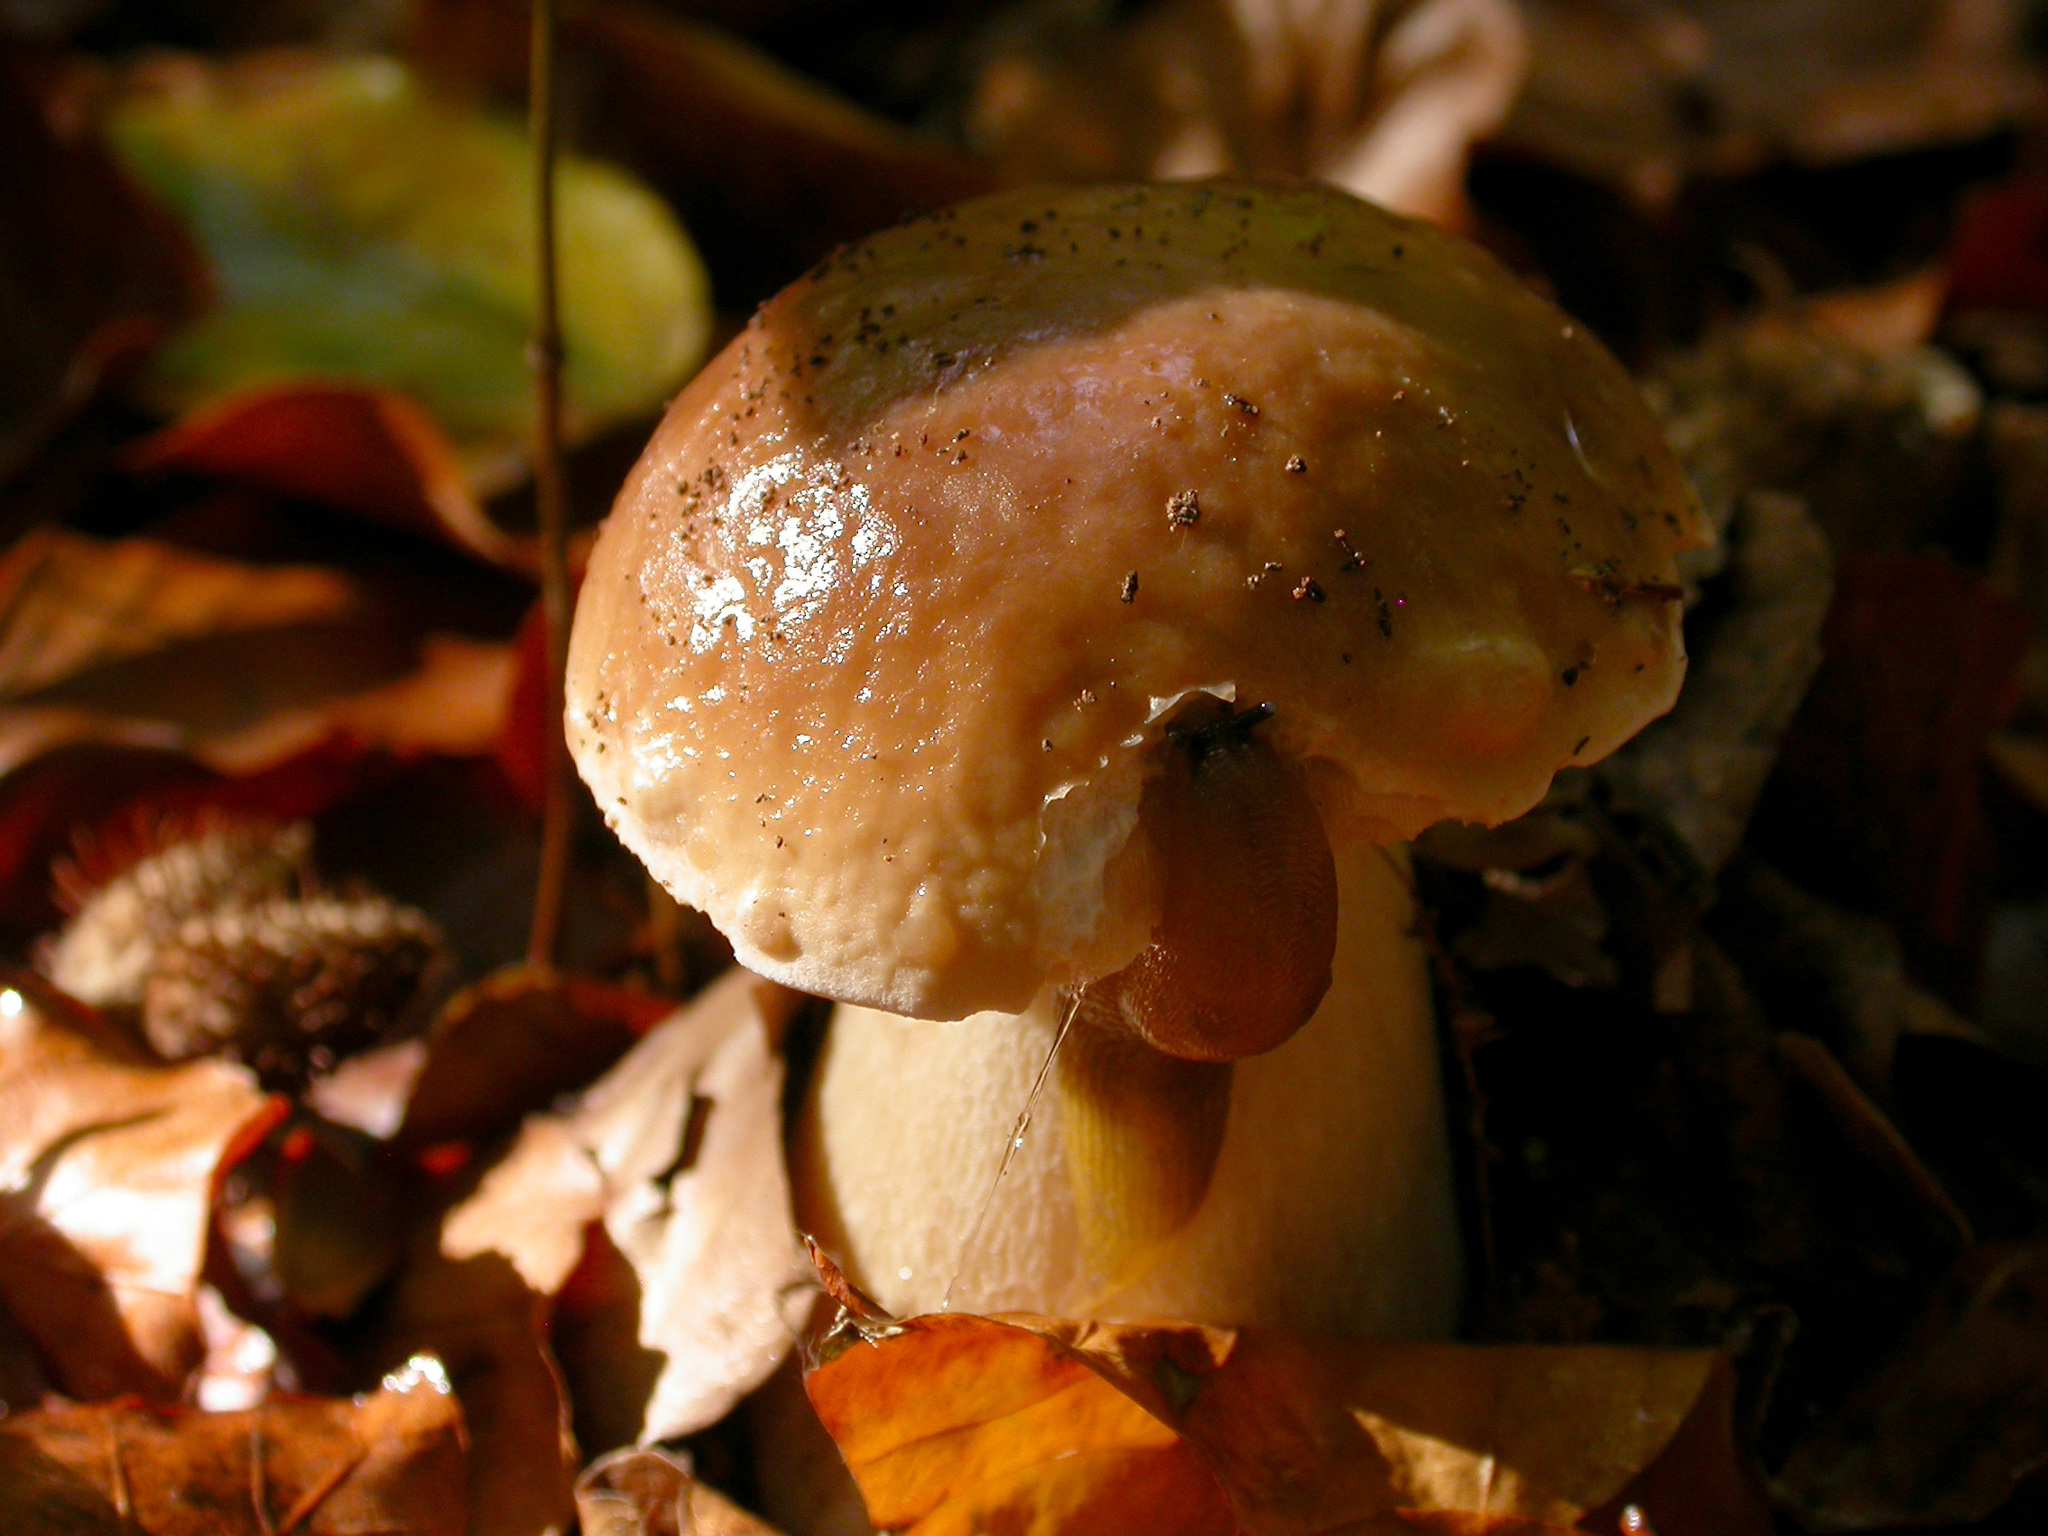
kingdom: Fungi
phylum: Basidiomycota
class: Agaricomycetes
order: Boletales
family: Boletaceae
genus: Boletus
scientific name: Boletus edulis
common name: Cep
